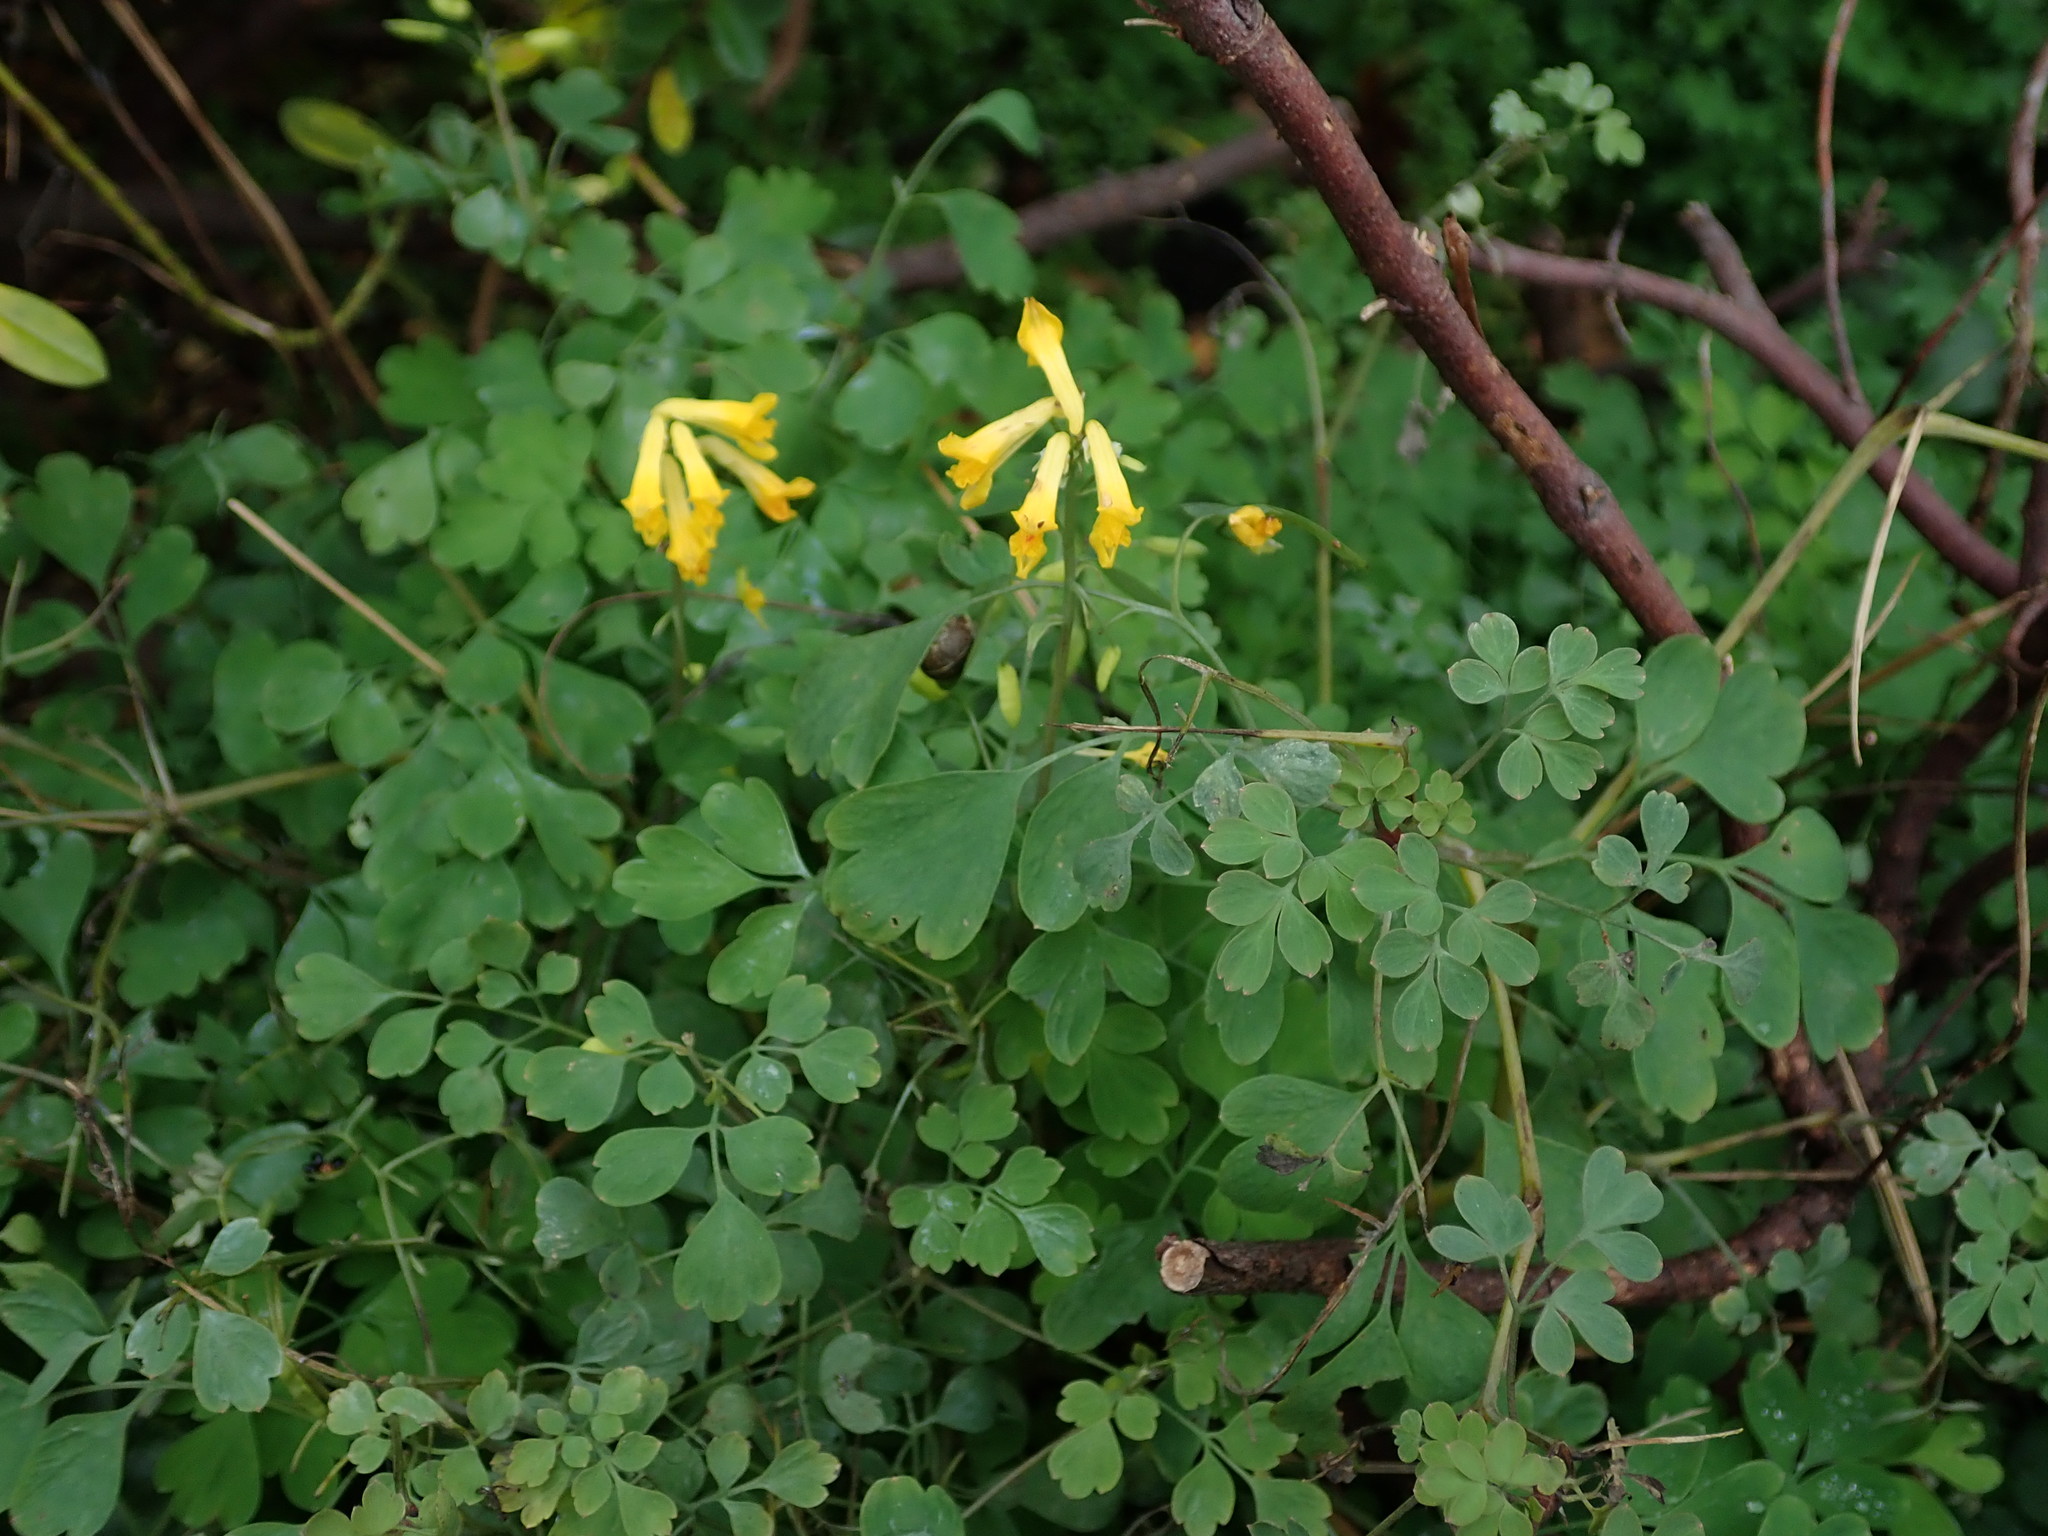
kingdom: Plantae
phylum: Tracheophyta
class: Magnoliopsida
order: Ranunculales
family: Papaveraceae
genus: Pseudofumaria
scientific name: Pseudofumaria lutea
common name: Yellow corydalis
